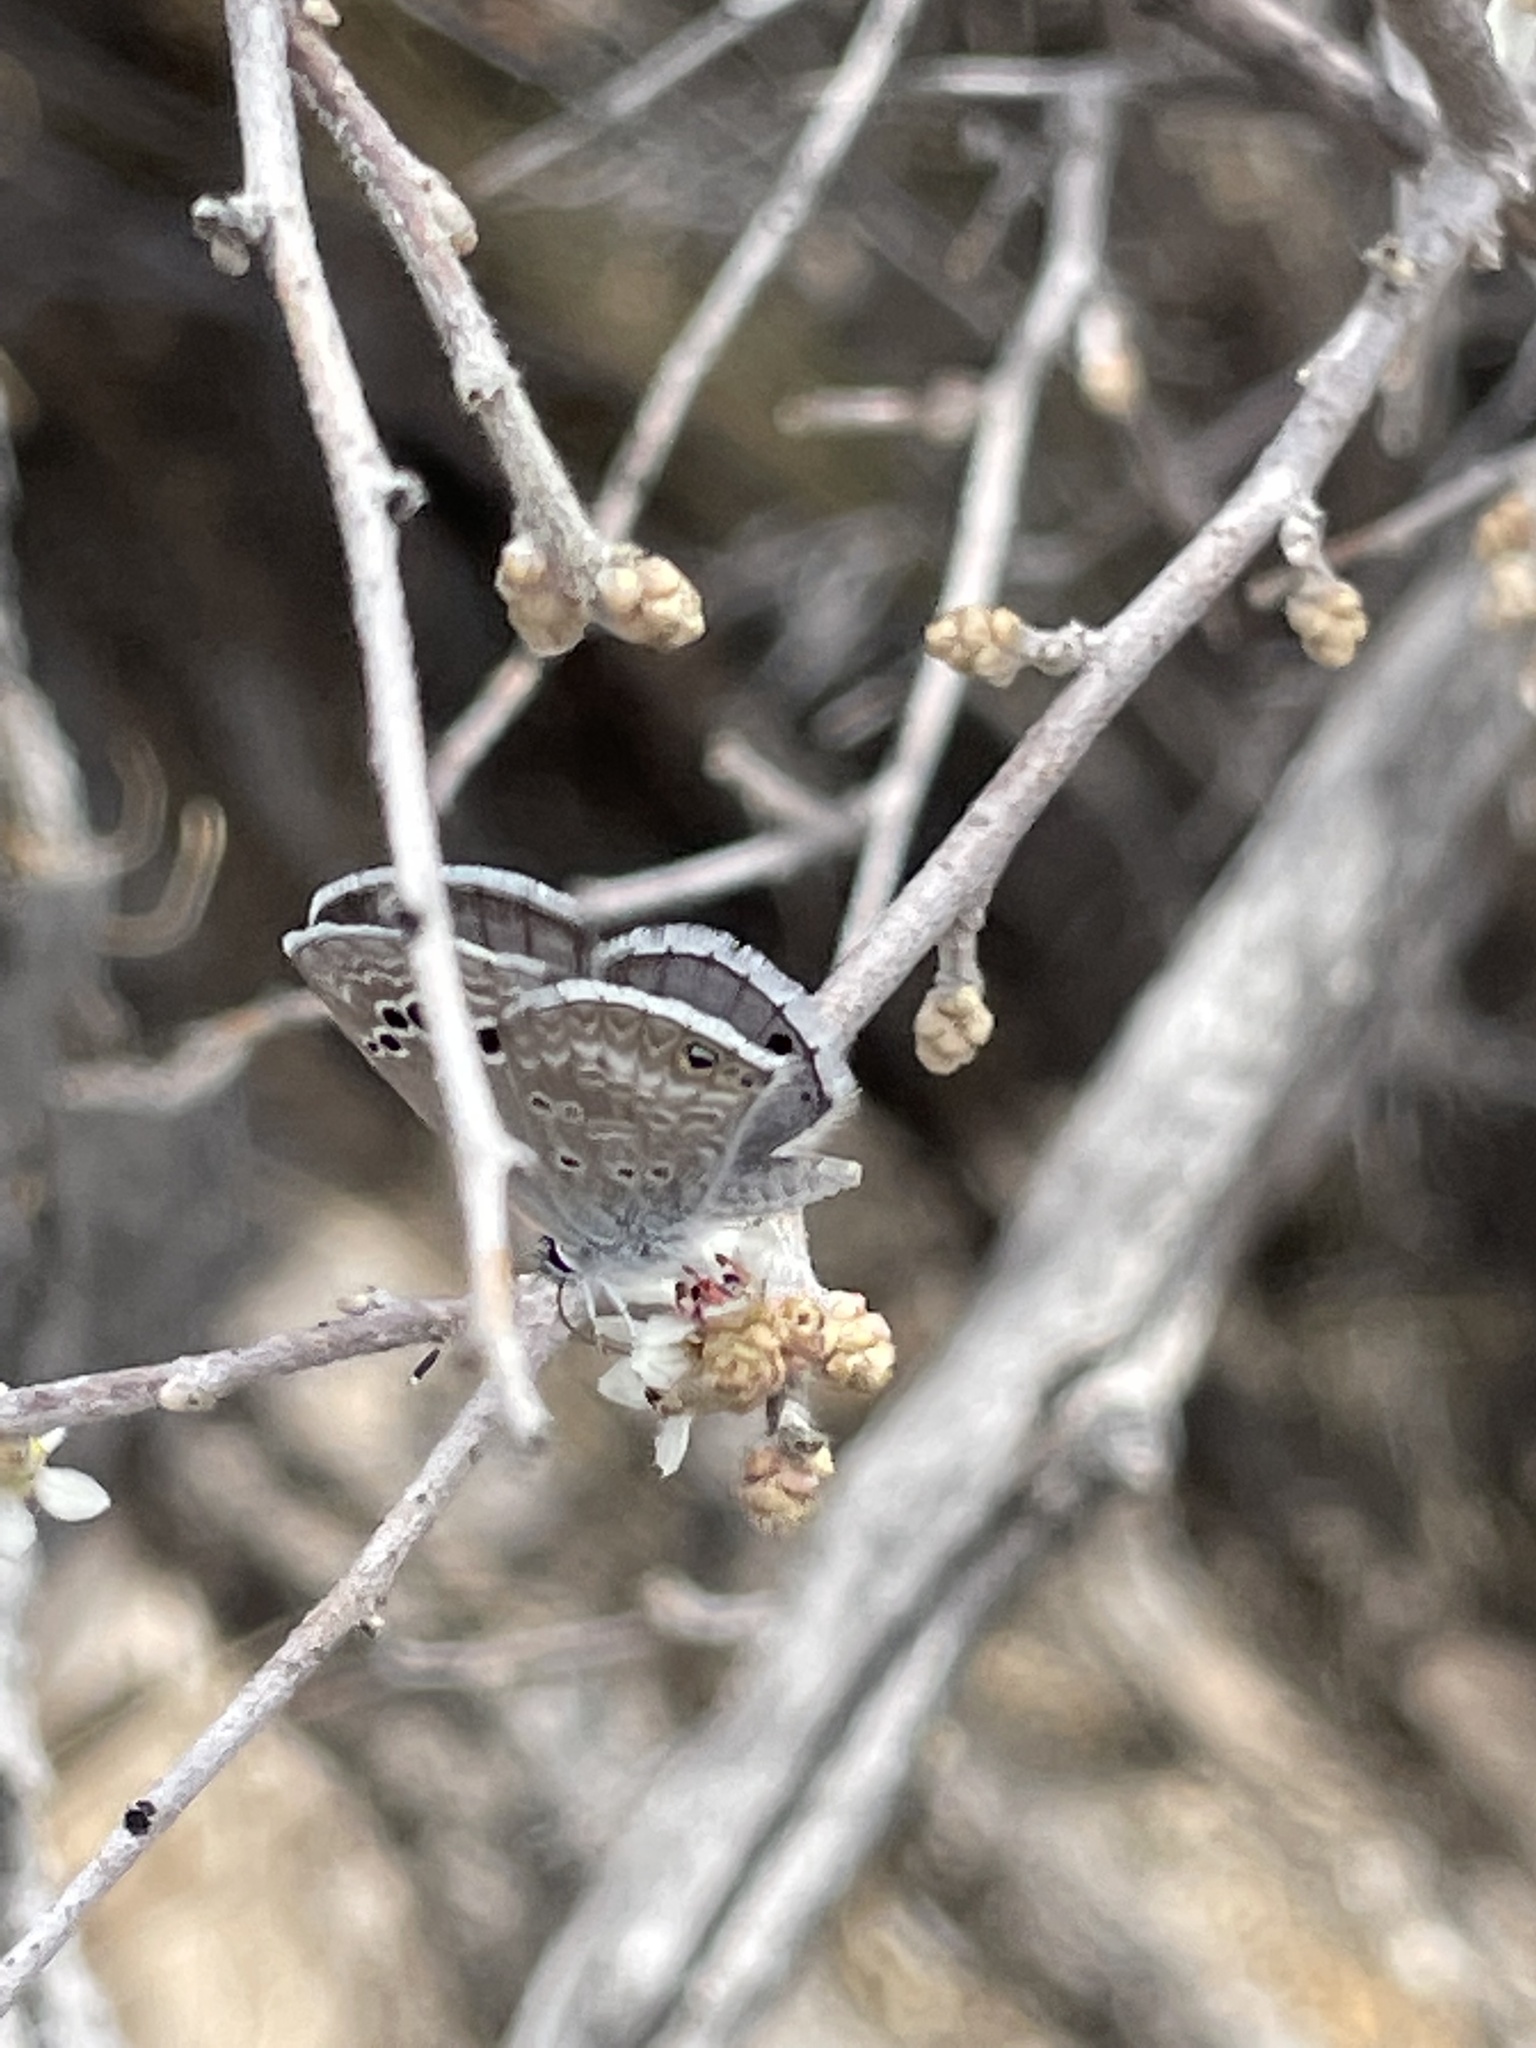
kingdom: Animalia
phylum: Arthropoda
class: Insecta
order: Lepidoptera
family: Lycaenidae
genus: Echinargus
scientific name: Echinargus isola
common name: Reakirt's blue
